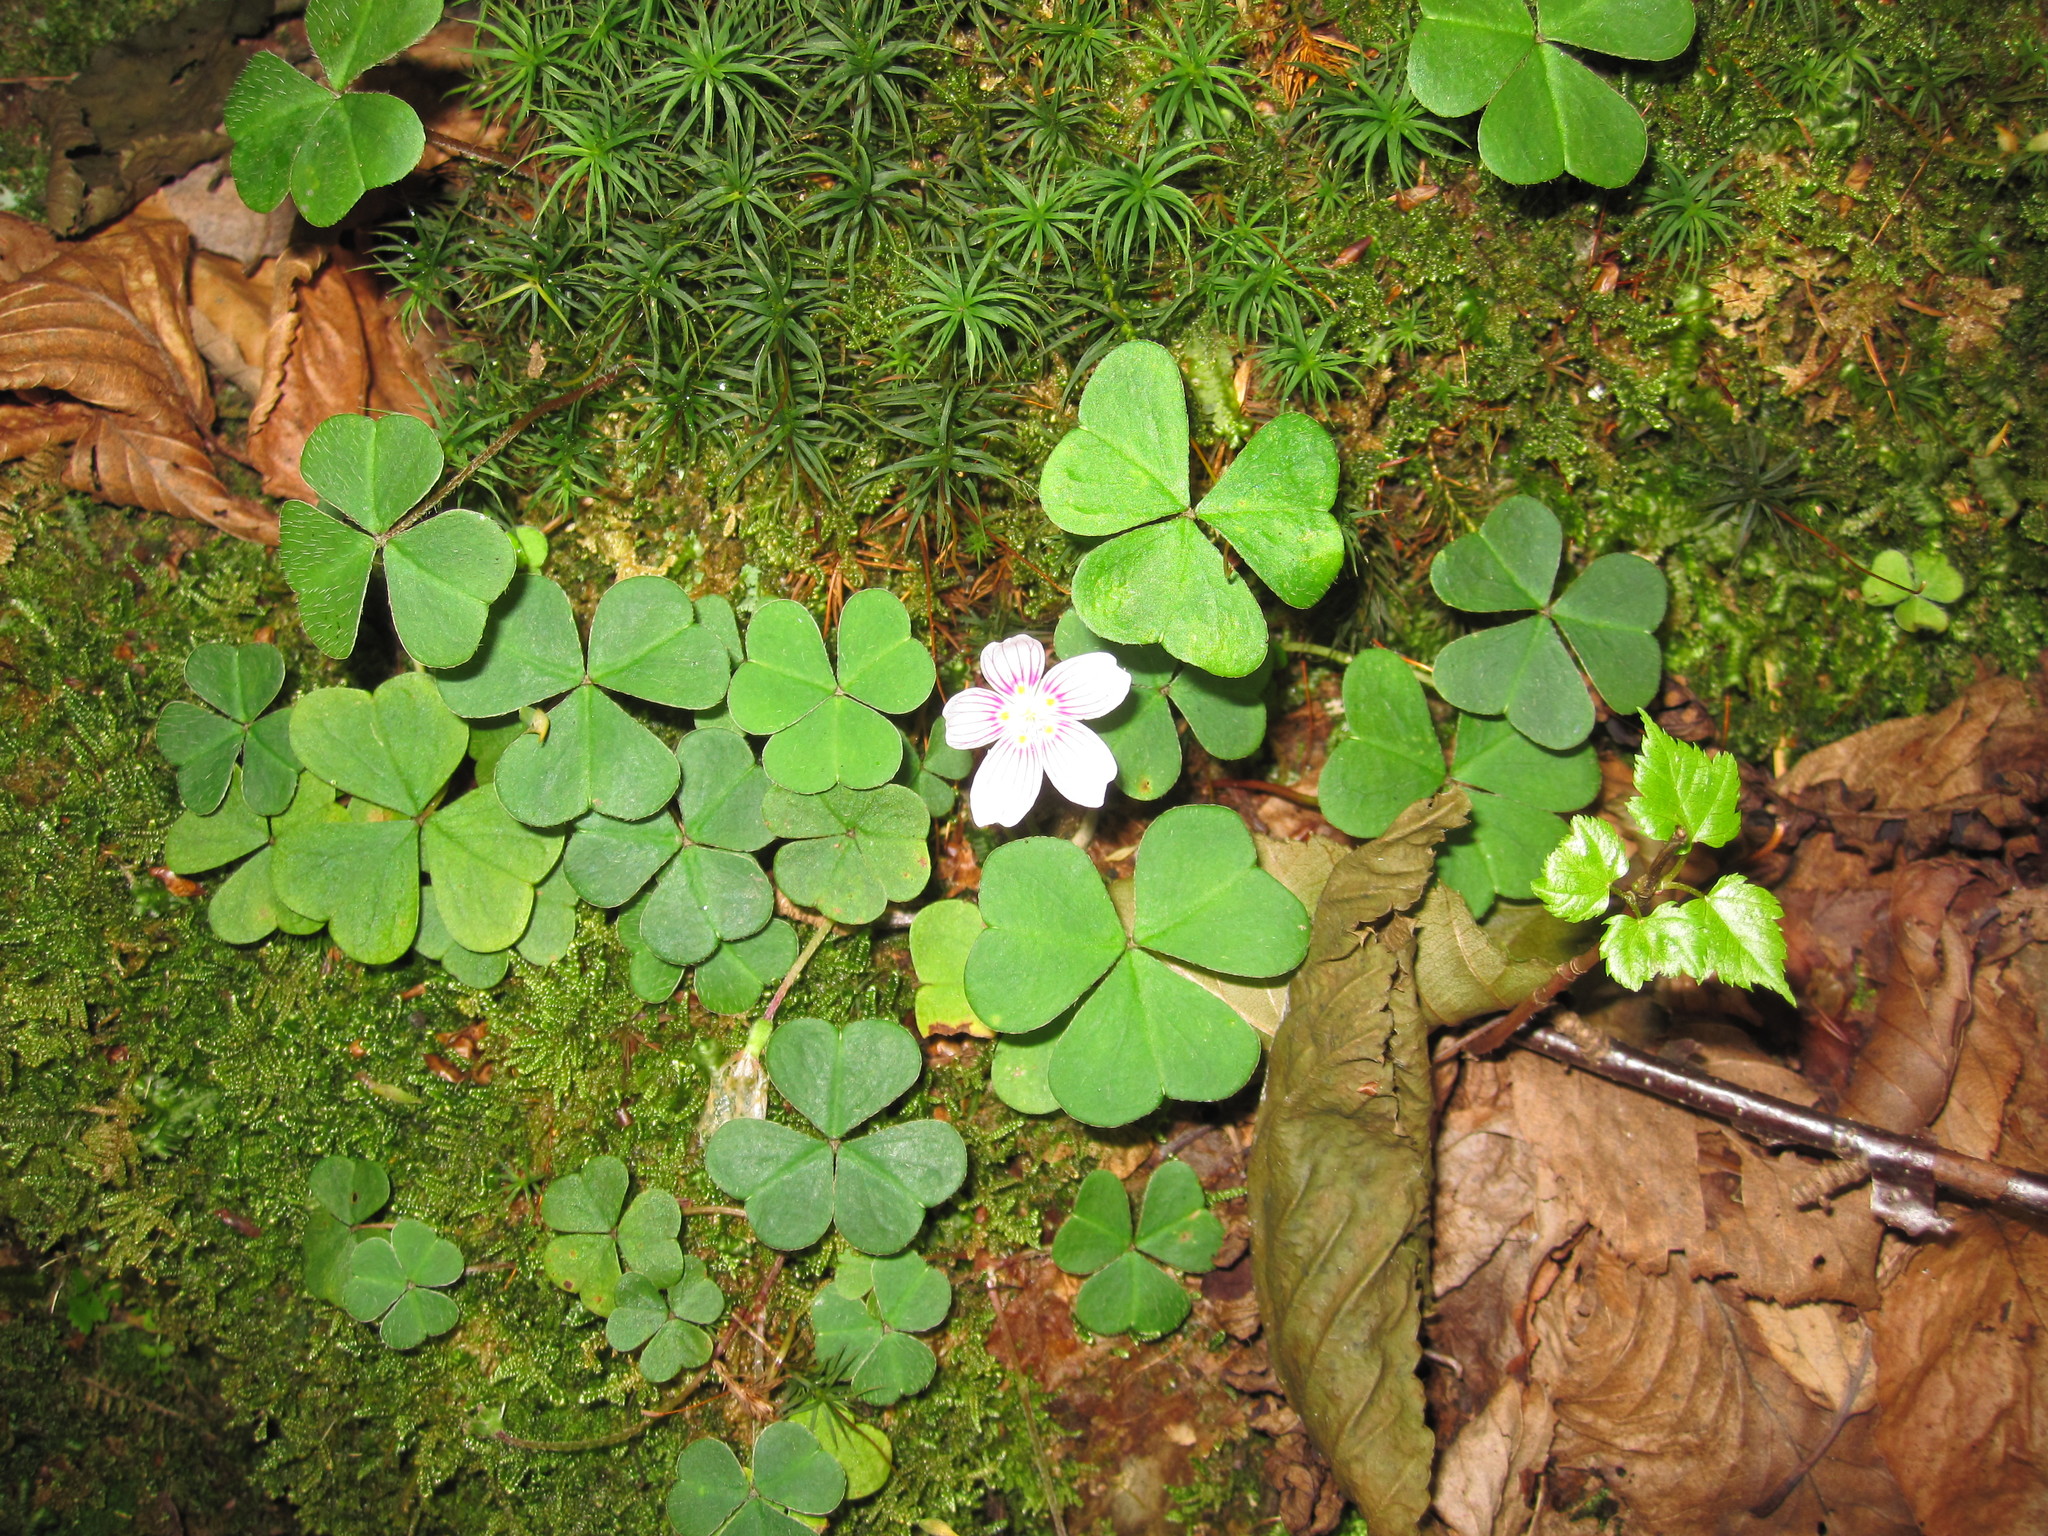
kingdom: Plantae
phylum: Tracheophyta
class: Magnoliopsida
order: Oxalidales
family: Oxalidaceae
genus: Oxalis
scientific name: Oxalis montana
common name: American wood-sorrel
